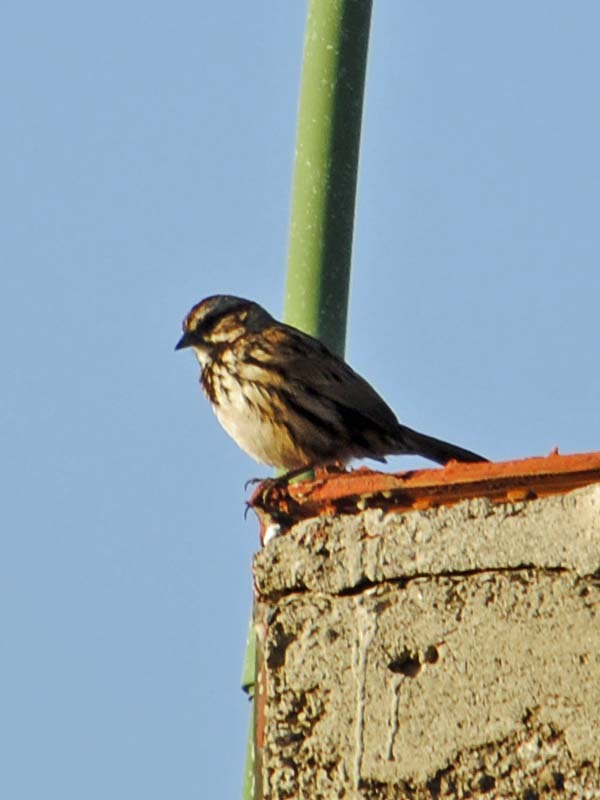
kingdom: Animalia
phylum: Chordata
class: Aves
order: Passeriformes
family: Passerellidae
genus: Melospiza
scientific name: Melospiza melodia
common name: Song sparrow
